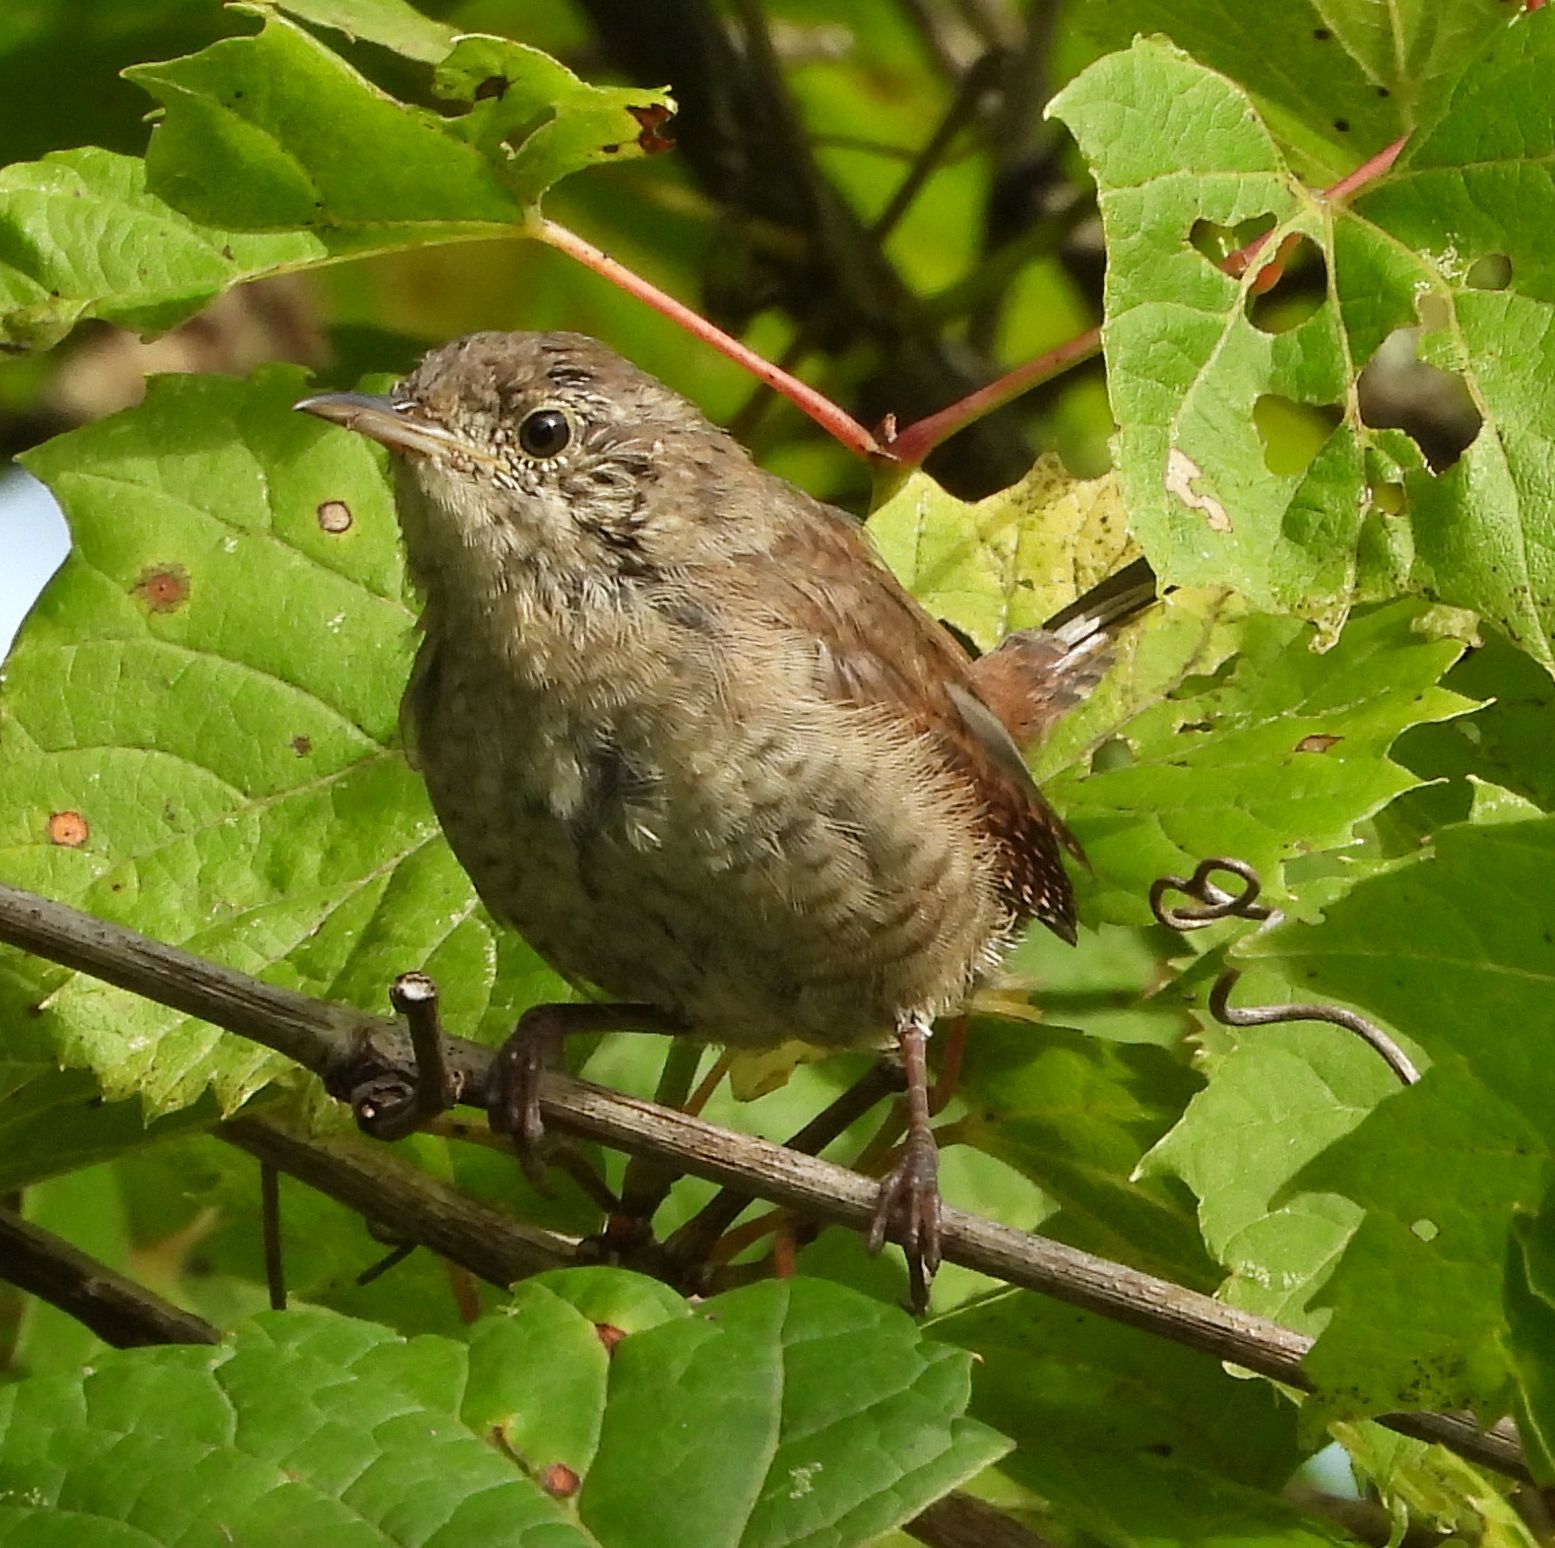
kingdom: Animalia
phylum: Chordata
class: Aves
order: Passeriformes
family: Troglodytidae
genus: Troglodytes
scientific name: Troglodytes aedon
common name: House wren
